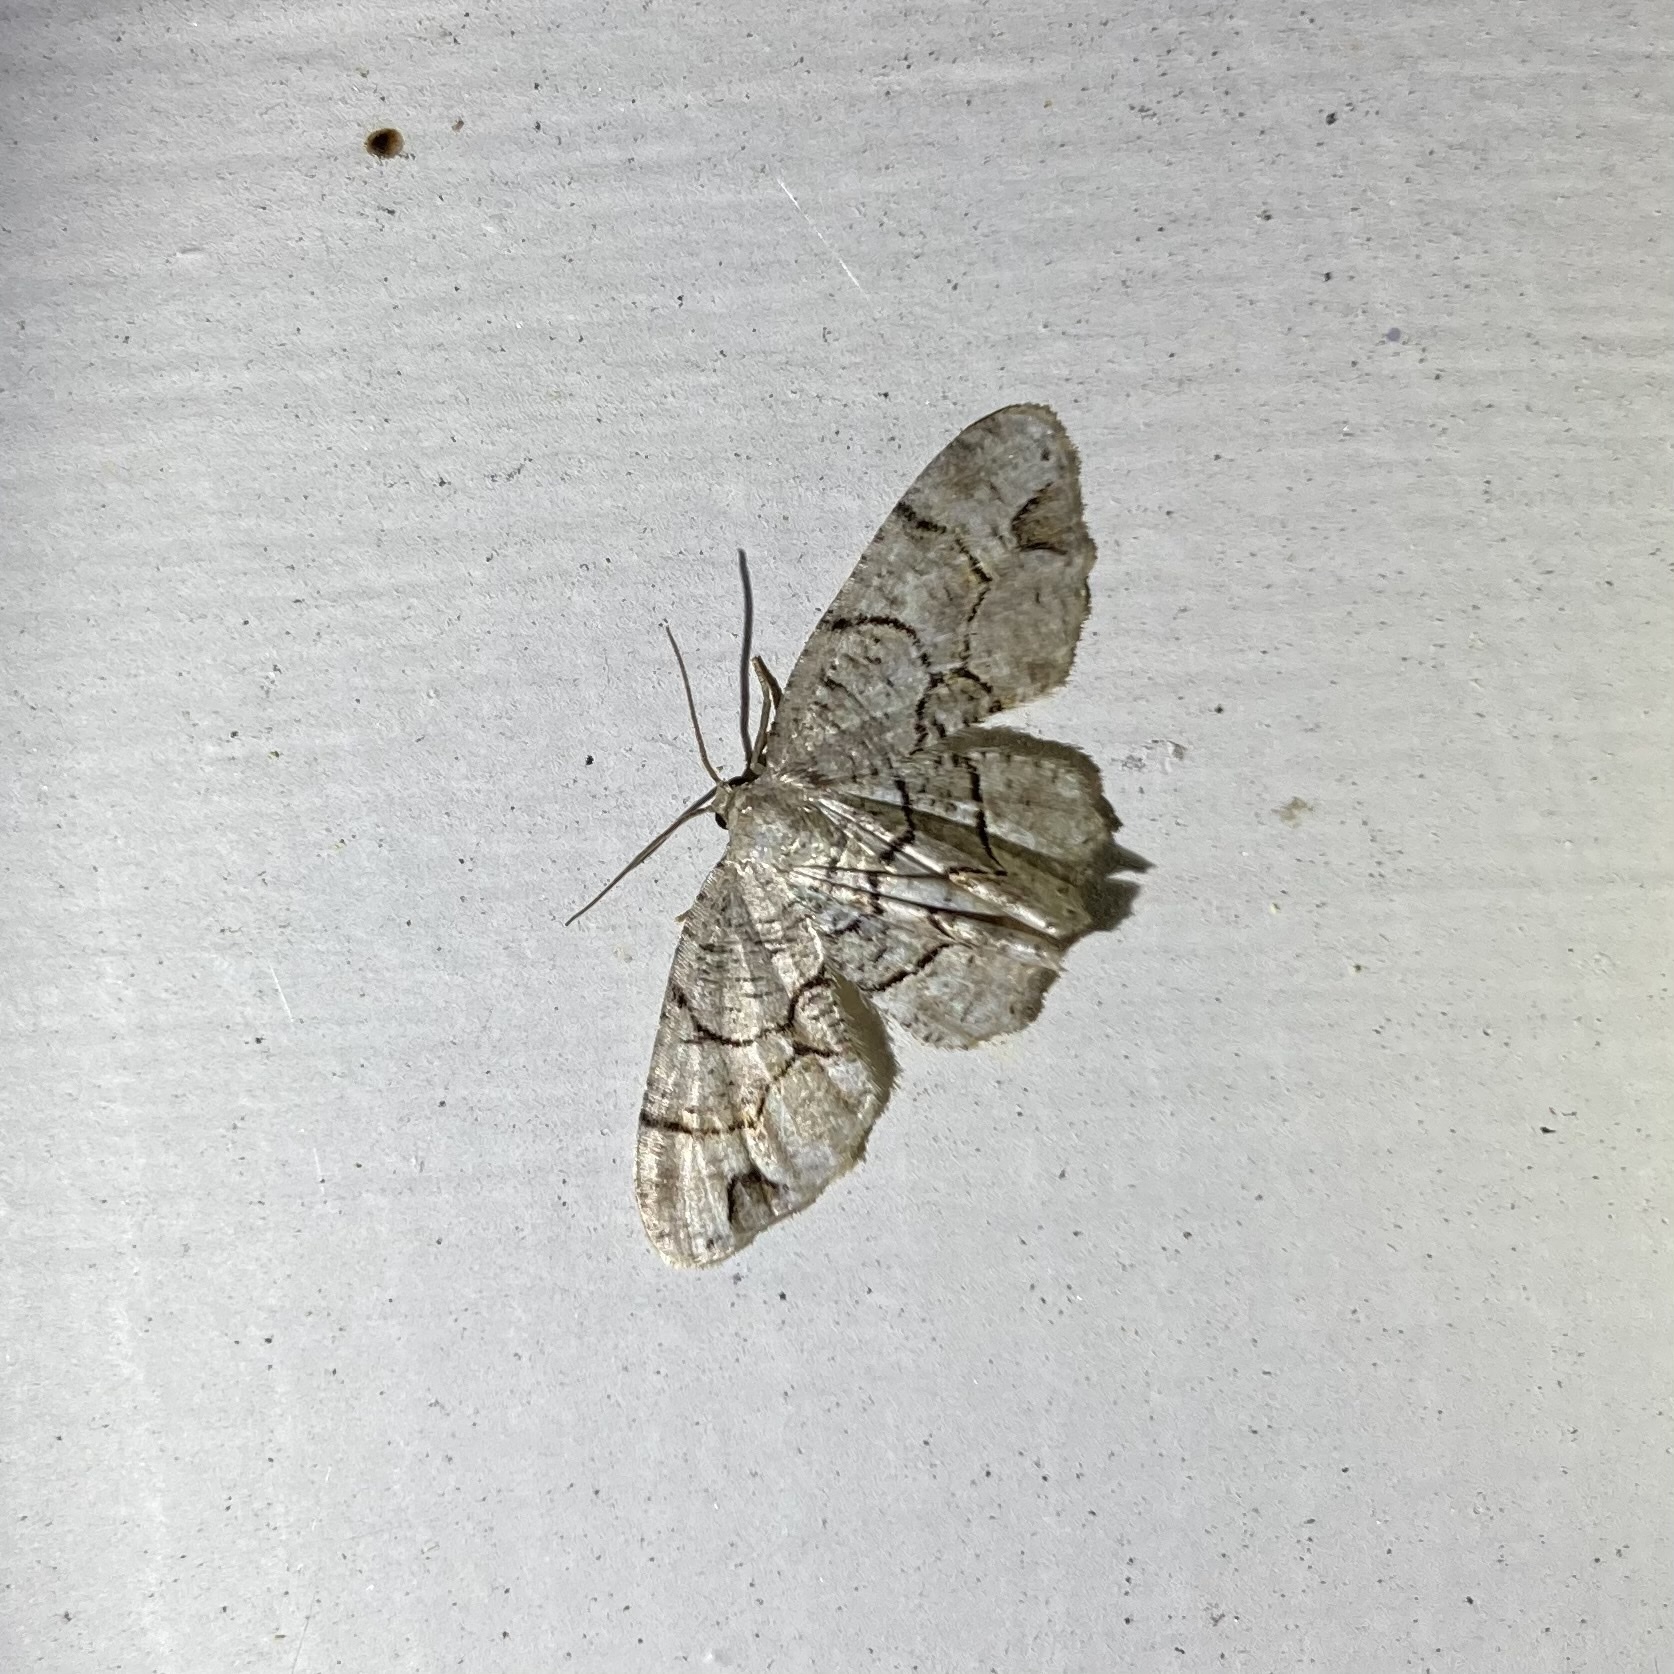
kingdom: Animalia
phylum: Arthropoda
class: Insecta
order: Lepidoptera
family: Uraniidae
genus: Epiplema
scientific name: Epiplema Callizzia amorata
